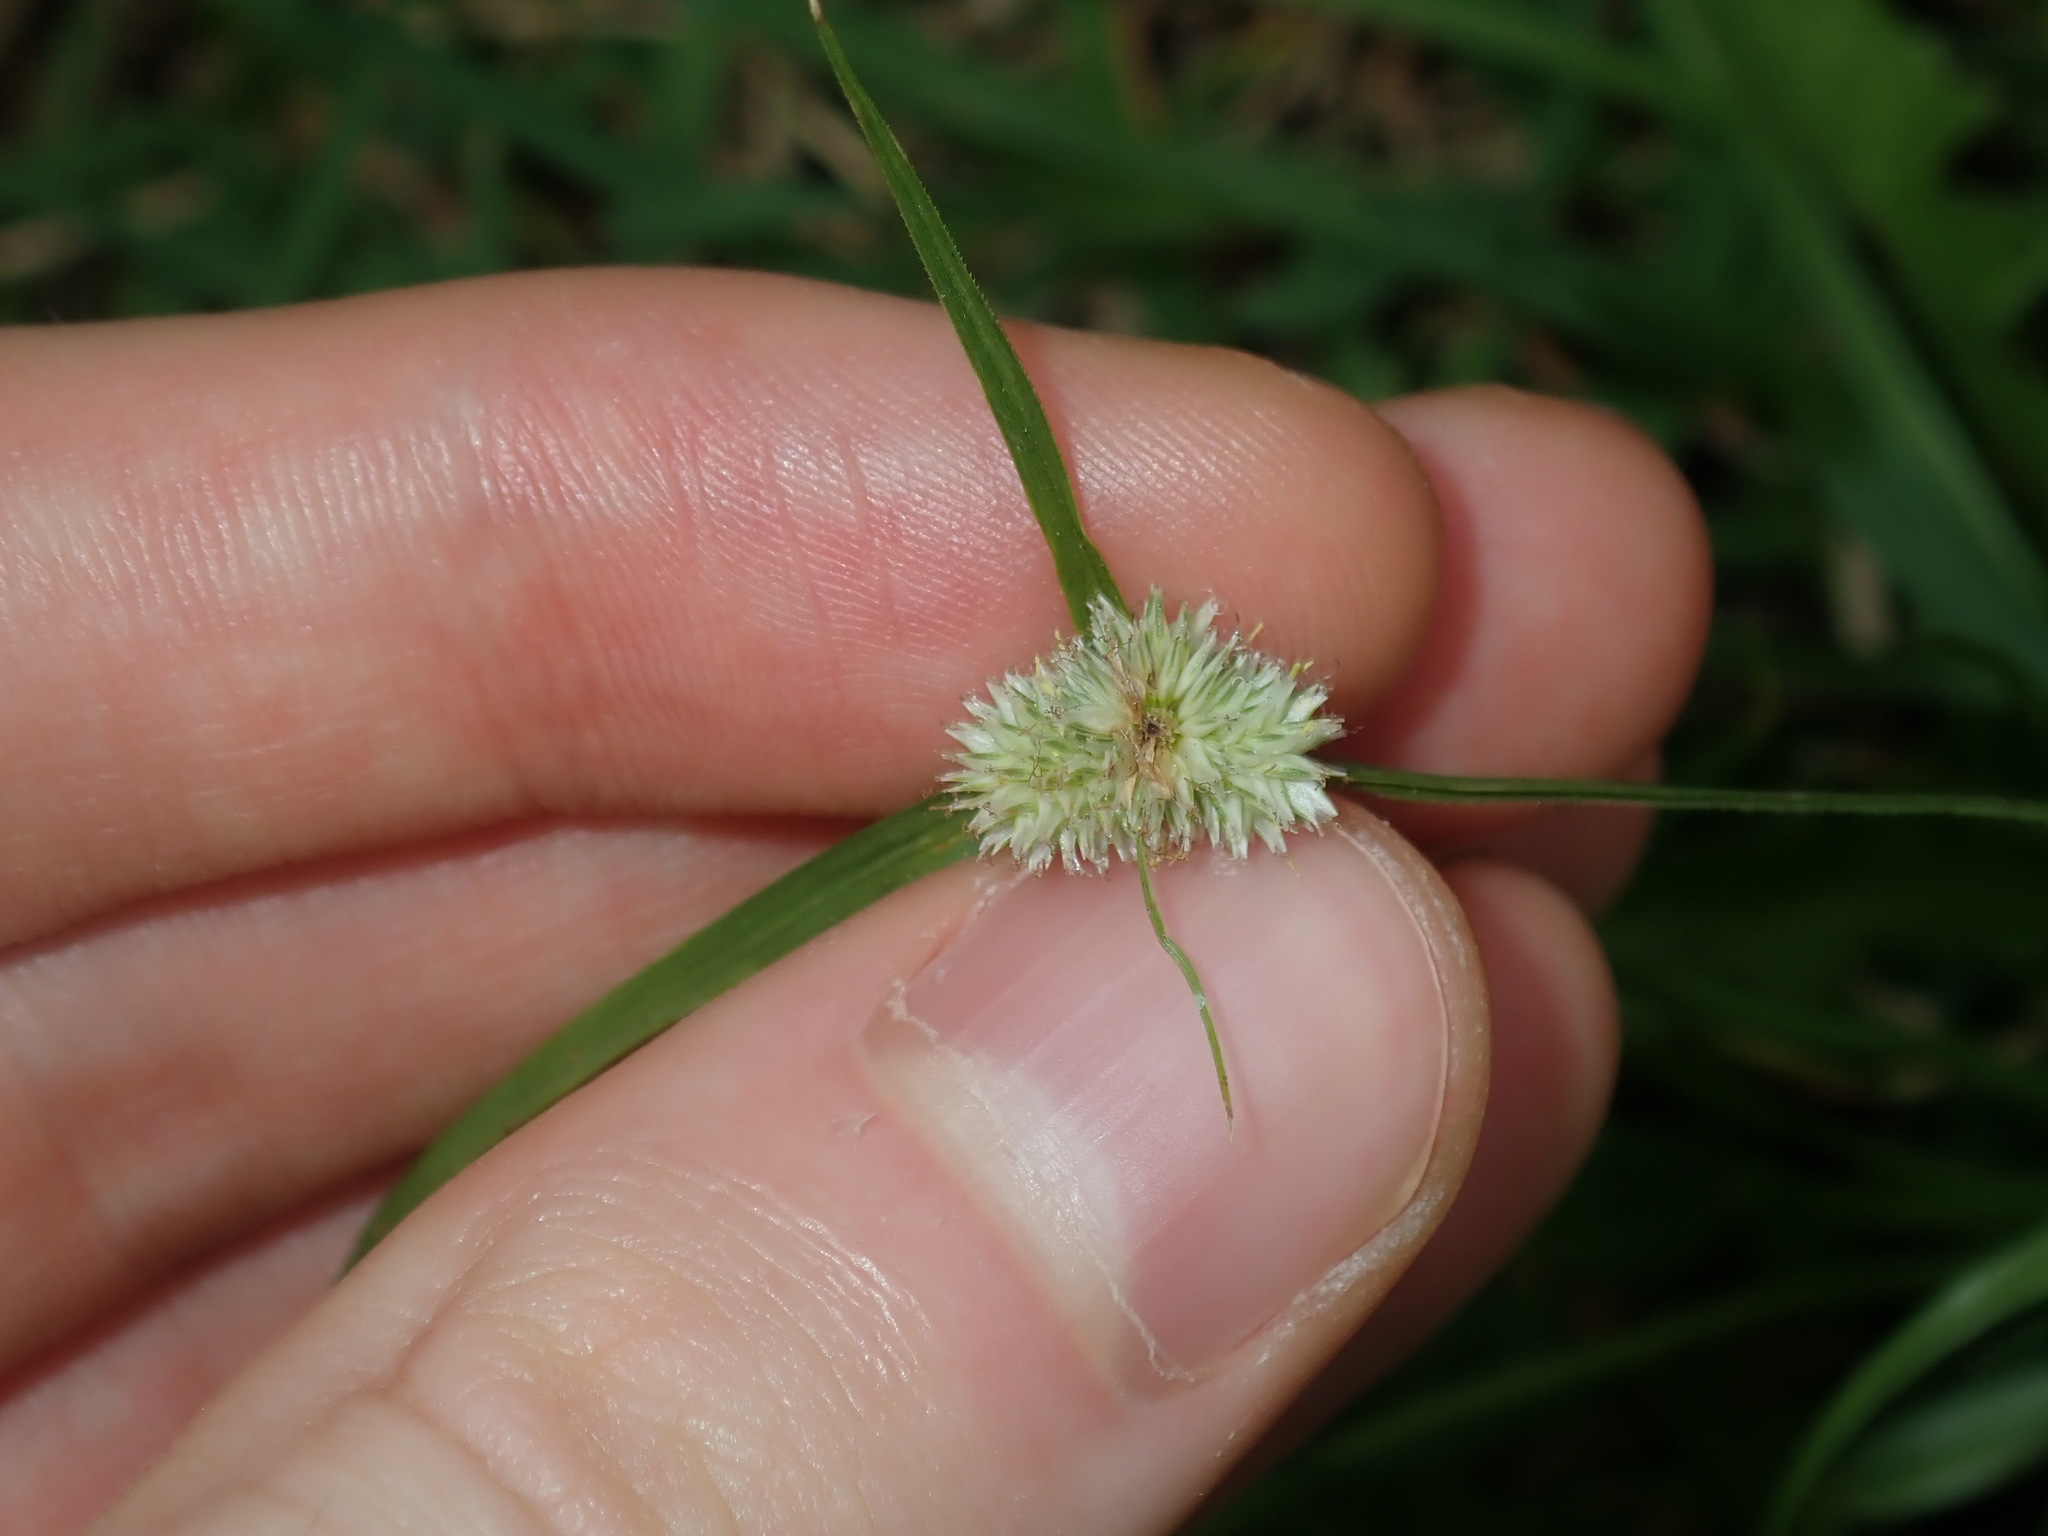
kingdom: Plantae
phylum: Tracheophyta
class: Liliopsida
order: Poales
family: Cyperaceae
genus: Cyperus
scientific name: Cyperus sesquiflorus
